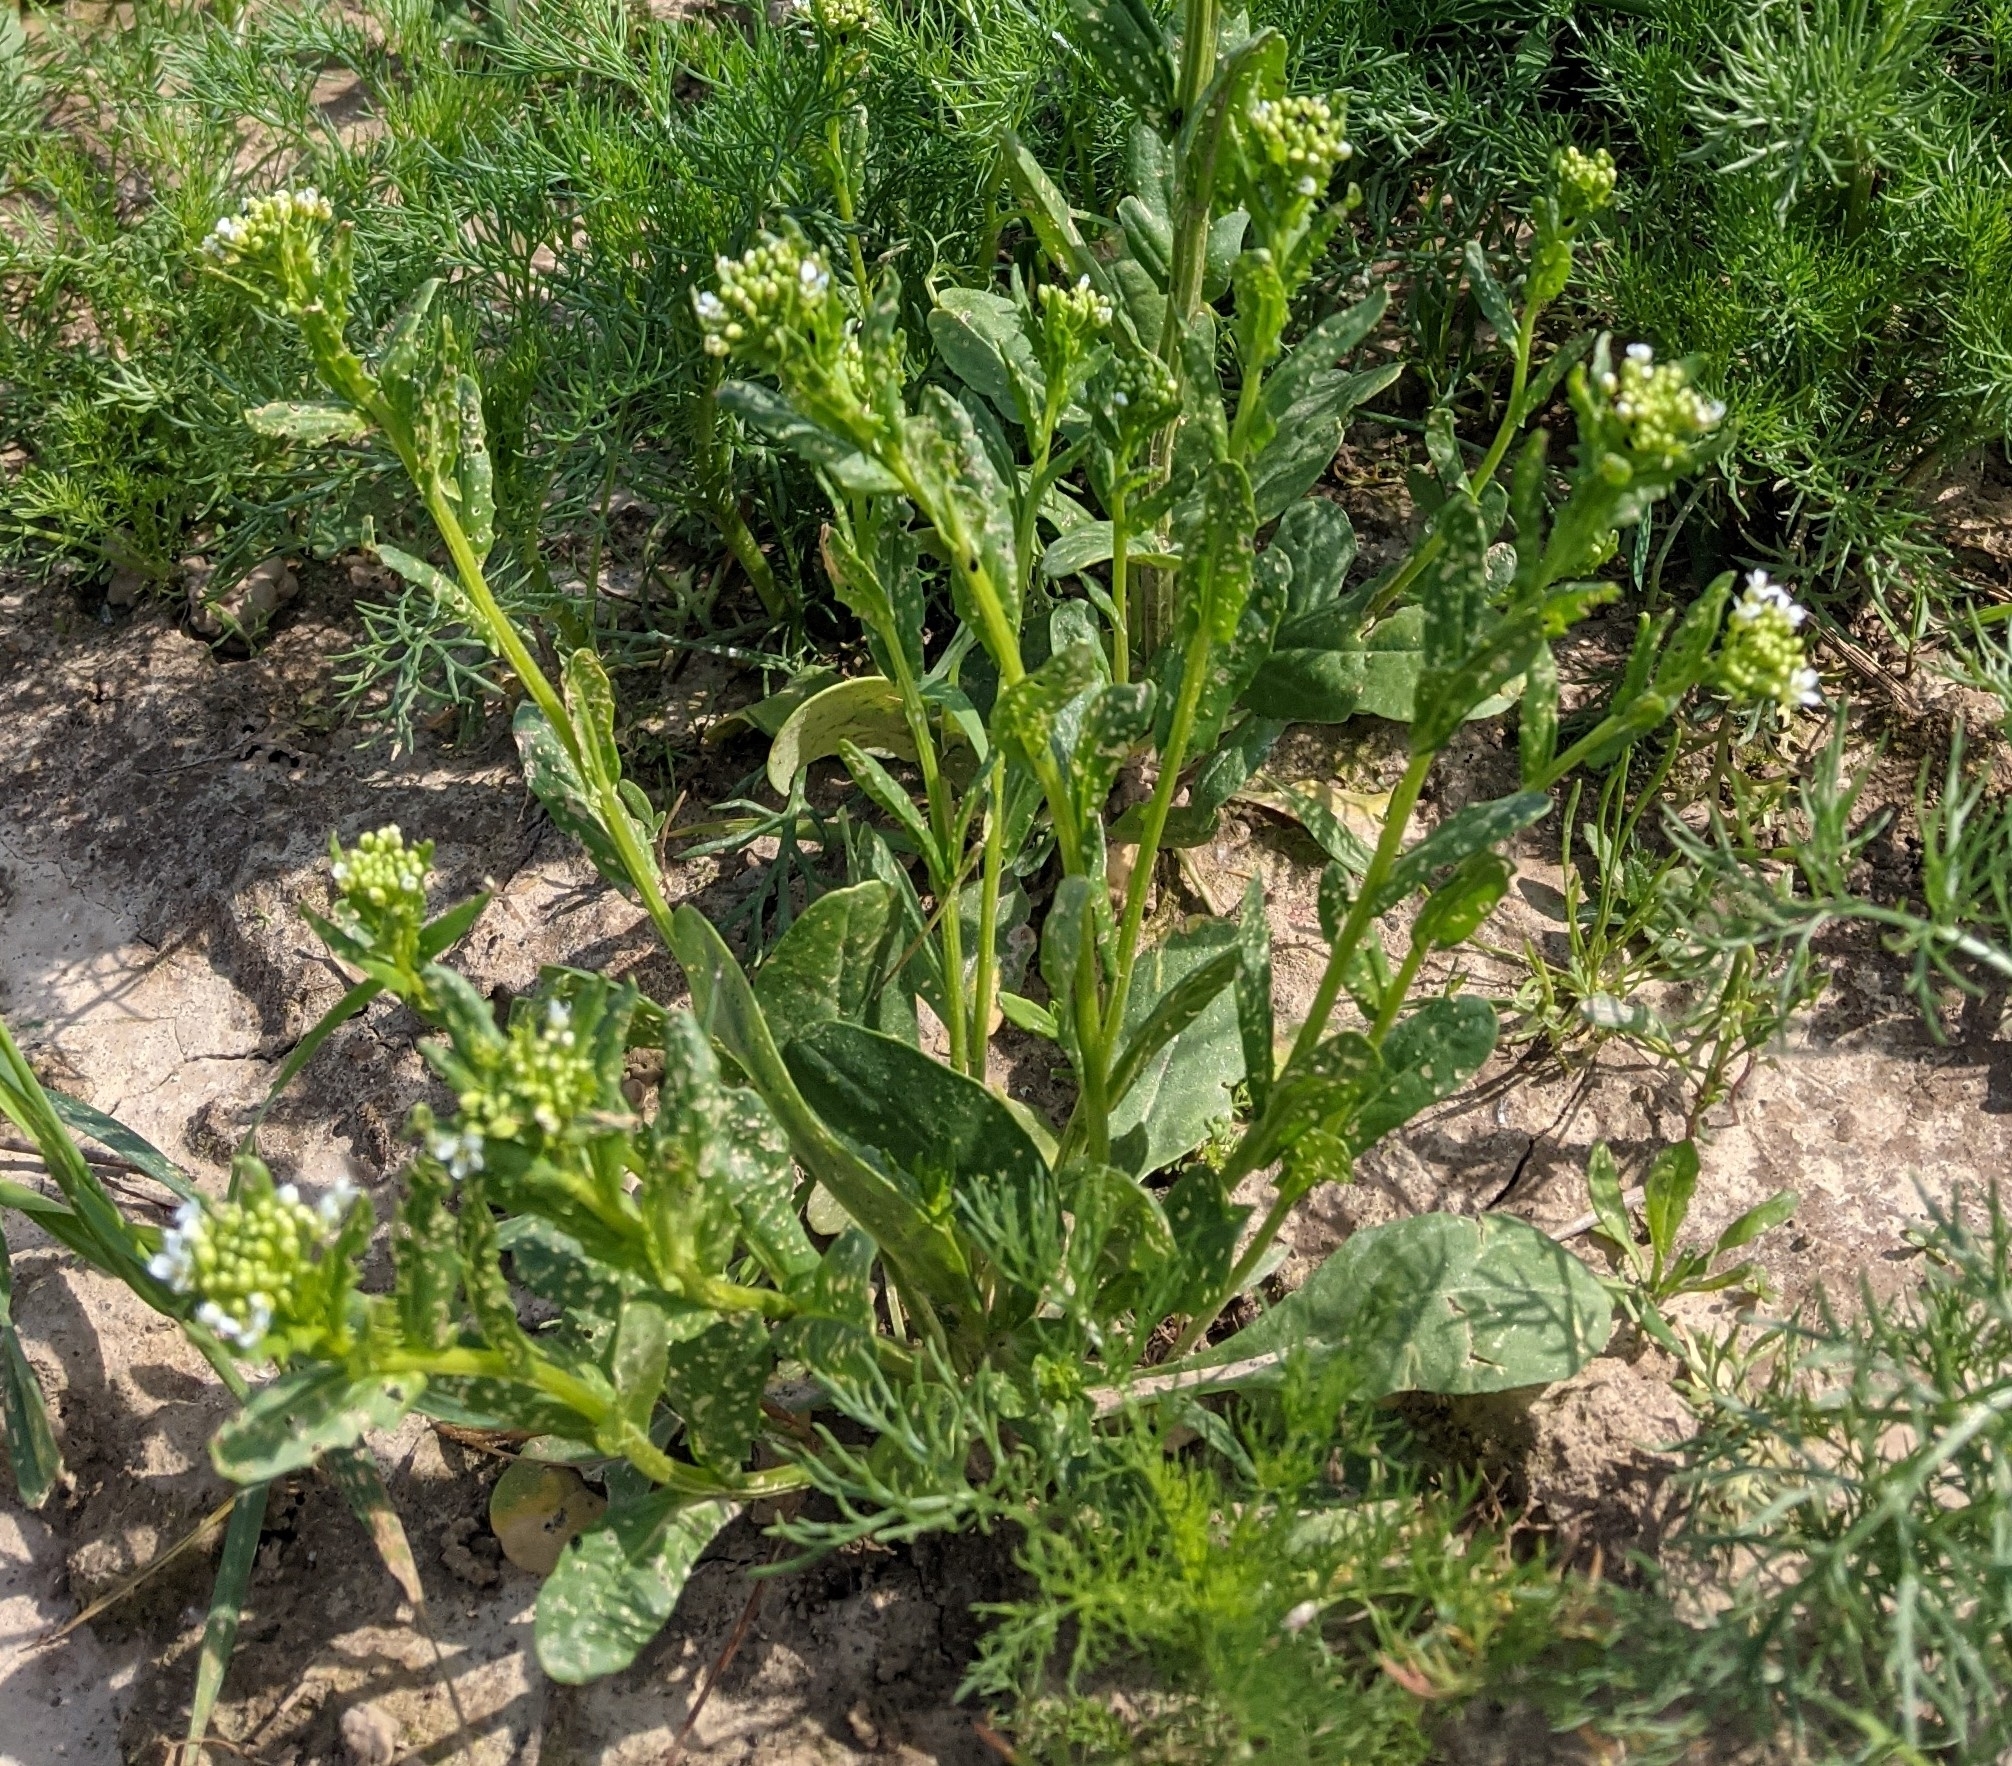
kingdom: Plantae
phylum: Tracheophyta
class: Magnoliopsida
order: Brassicales
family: Brassicaceae
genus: Thlaspi
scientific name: Thlaspi arvense
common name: Field pennycress
